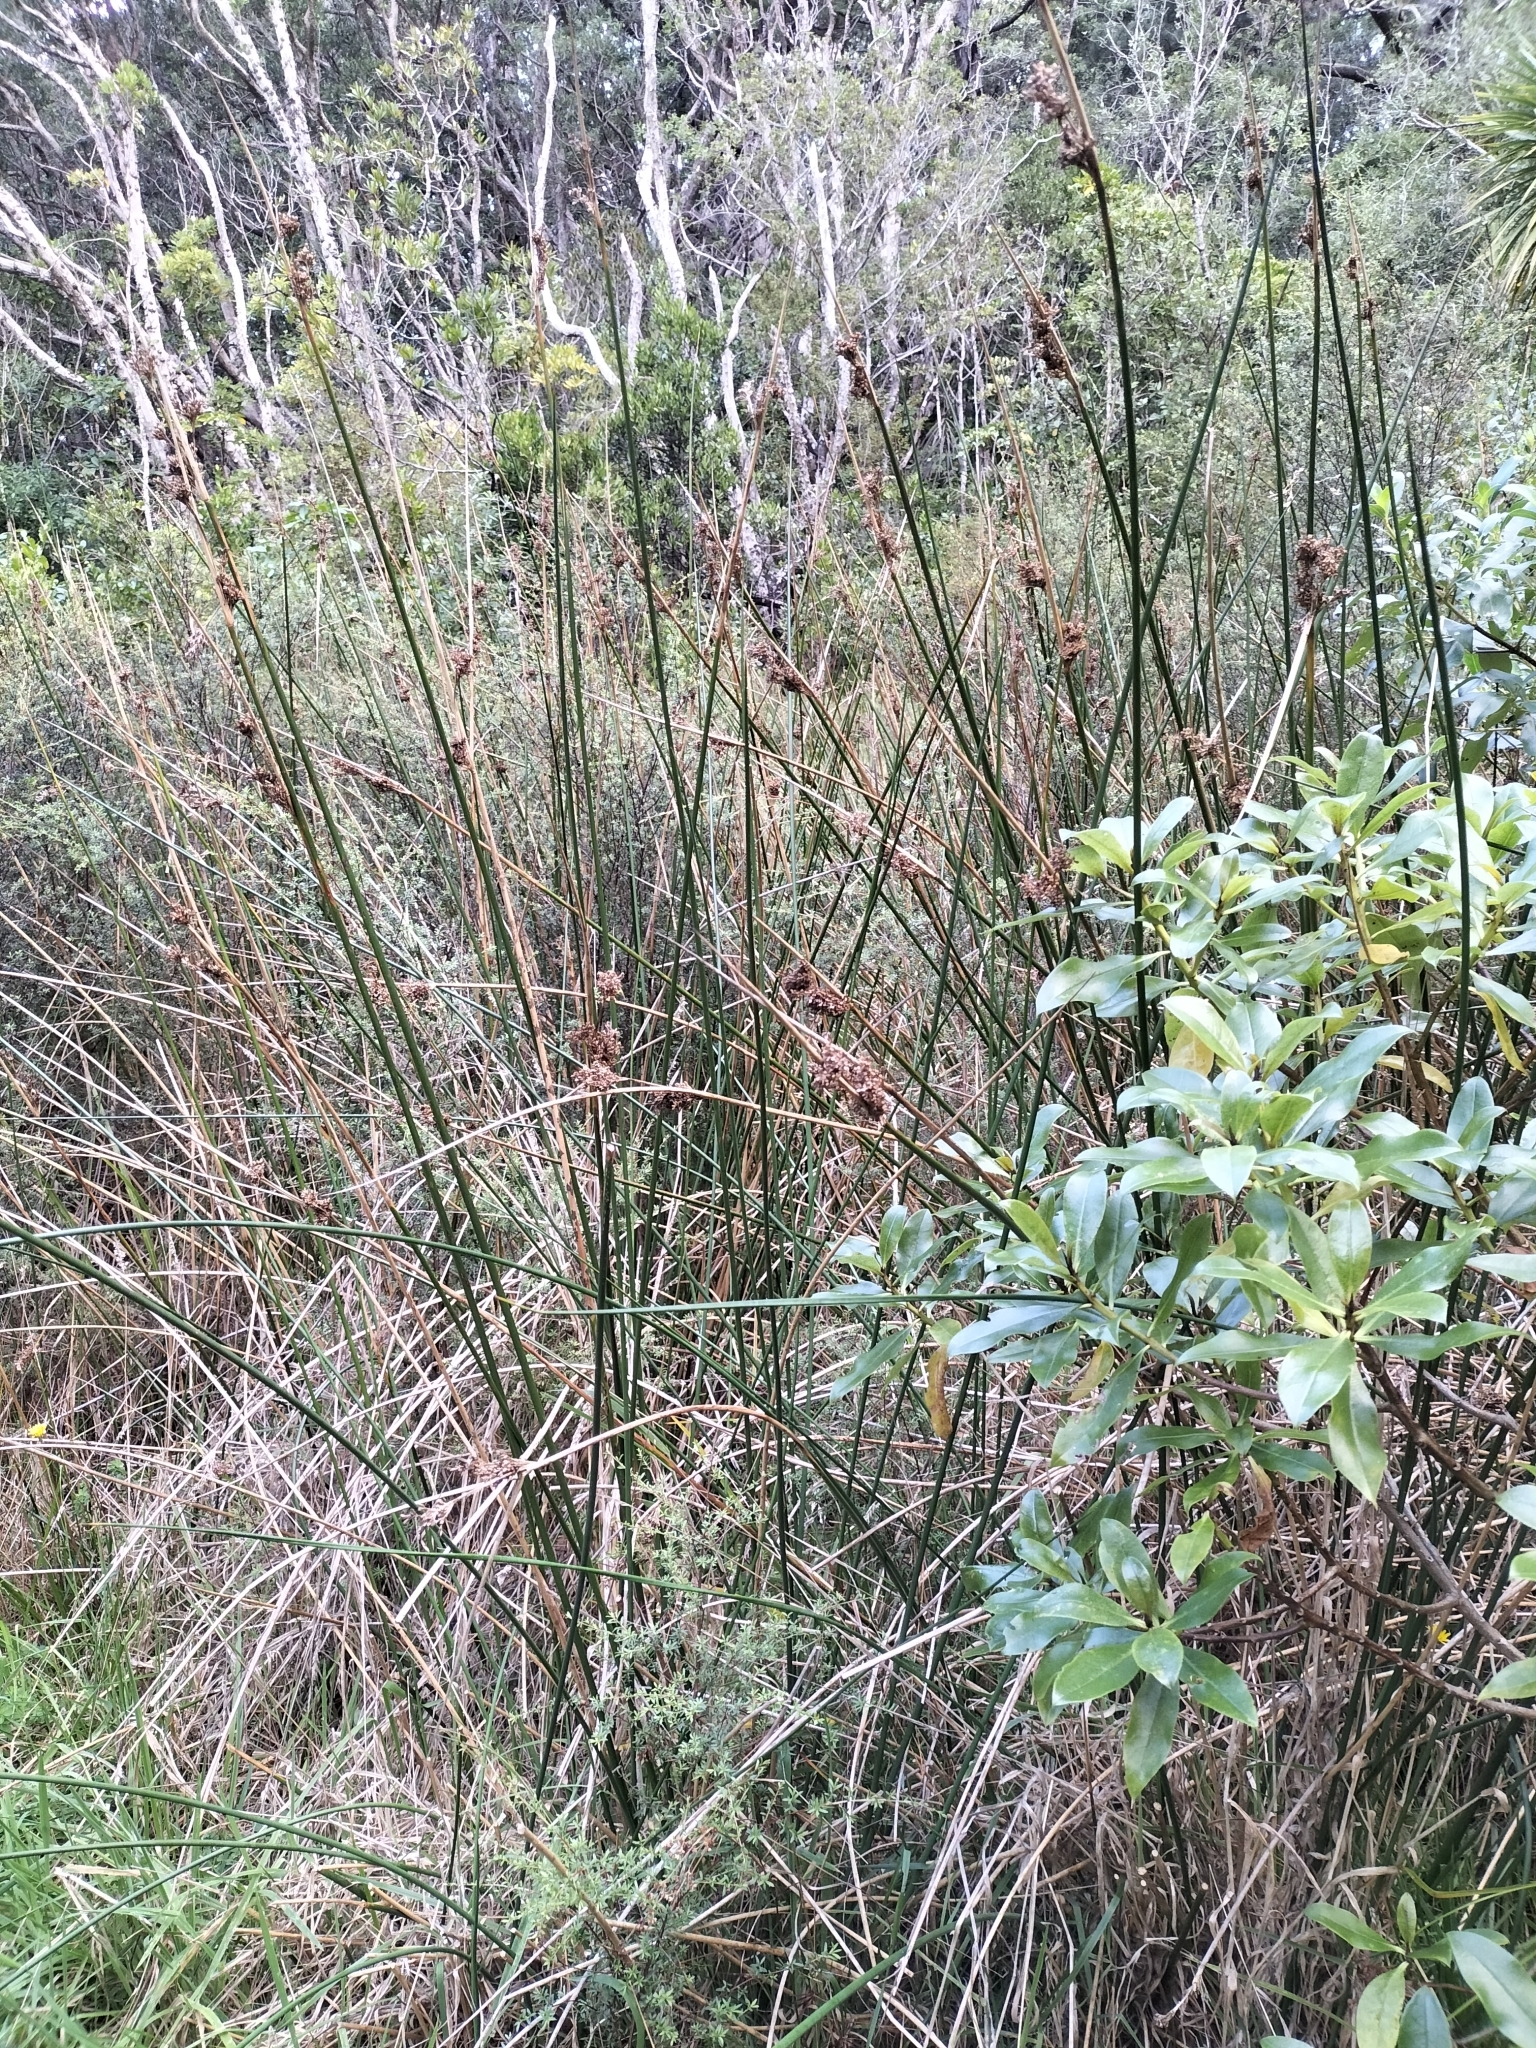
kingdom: Plantae
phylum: Tracheophyta
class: Liliopsida
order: Poales
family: Juncaceae
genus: Juncus
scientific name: Juncus pallidus
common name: Great soft-rush
